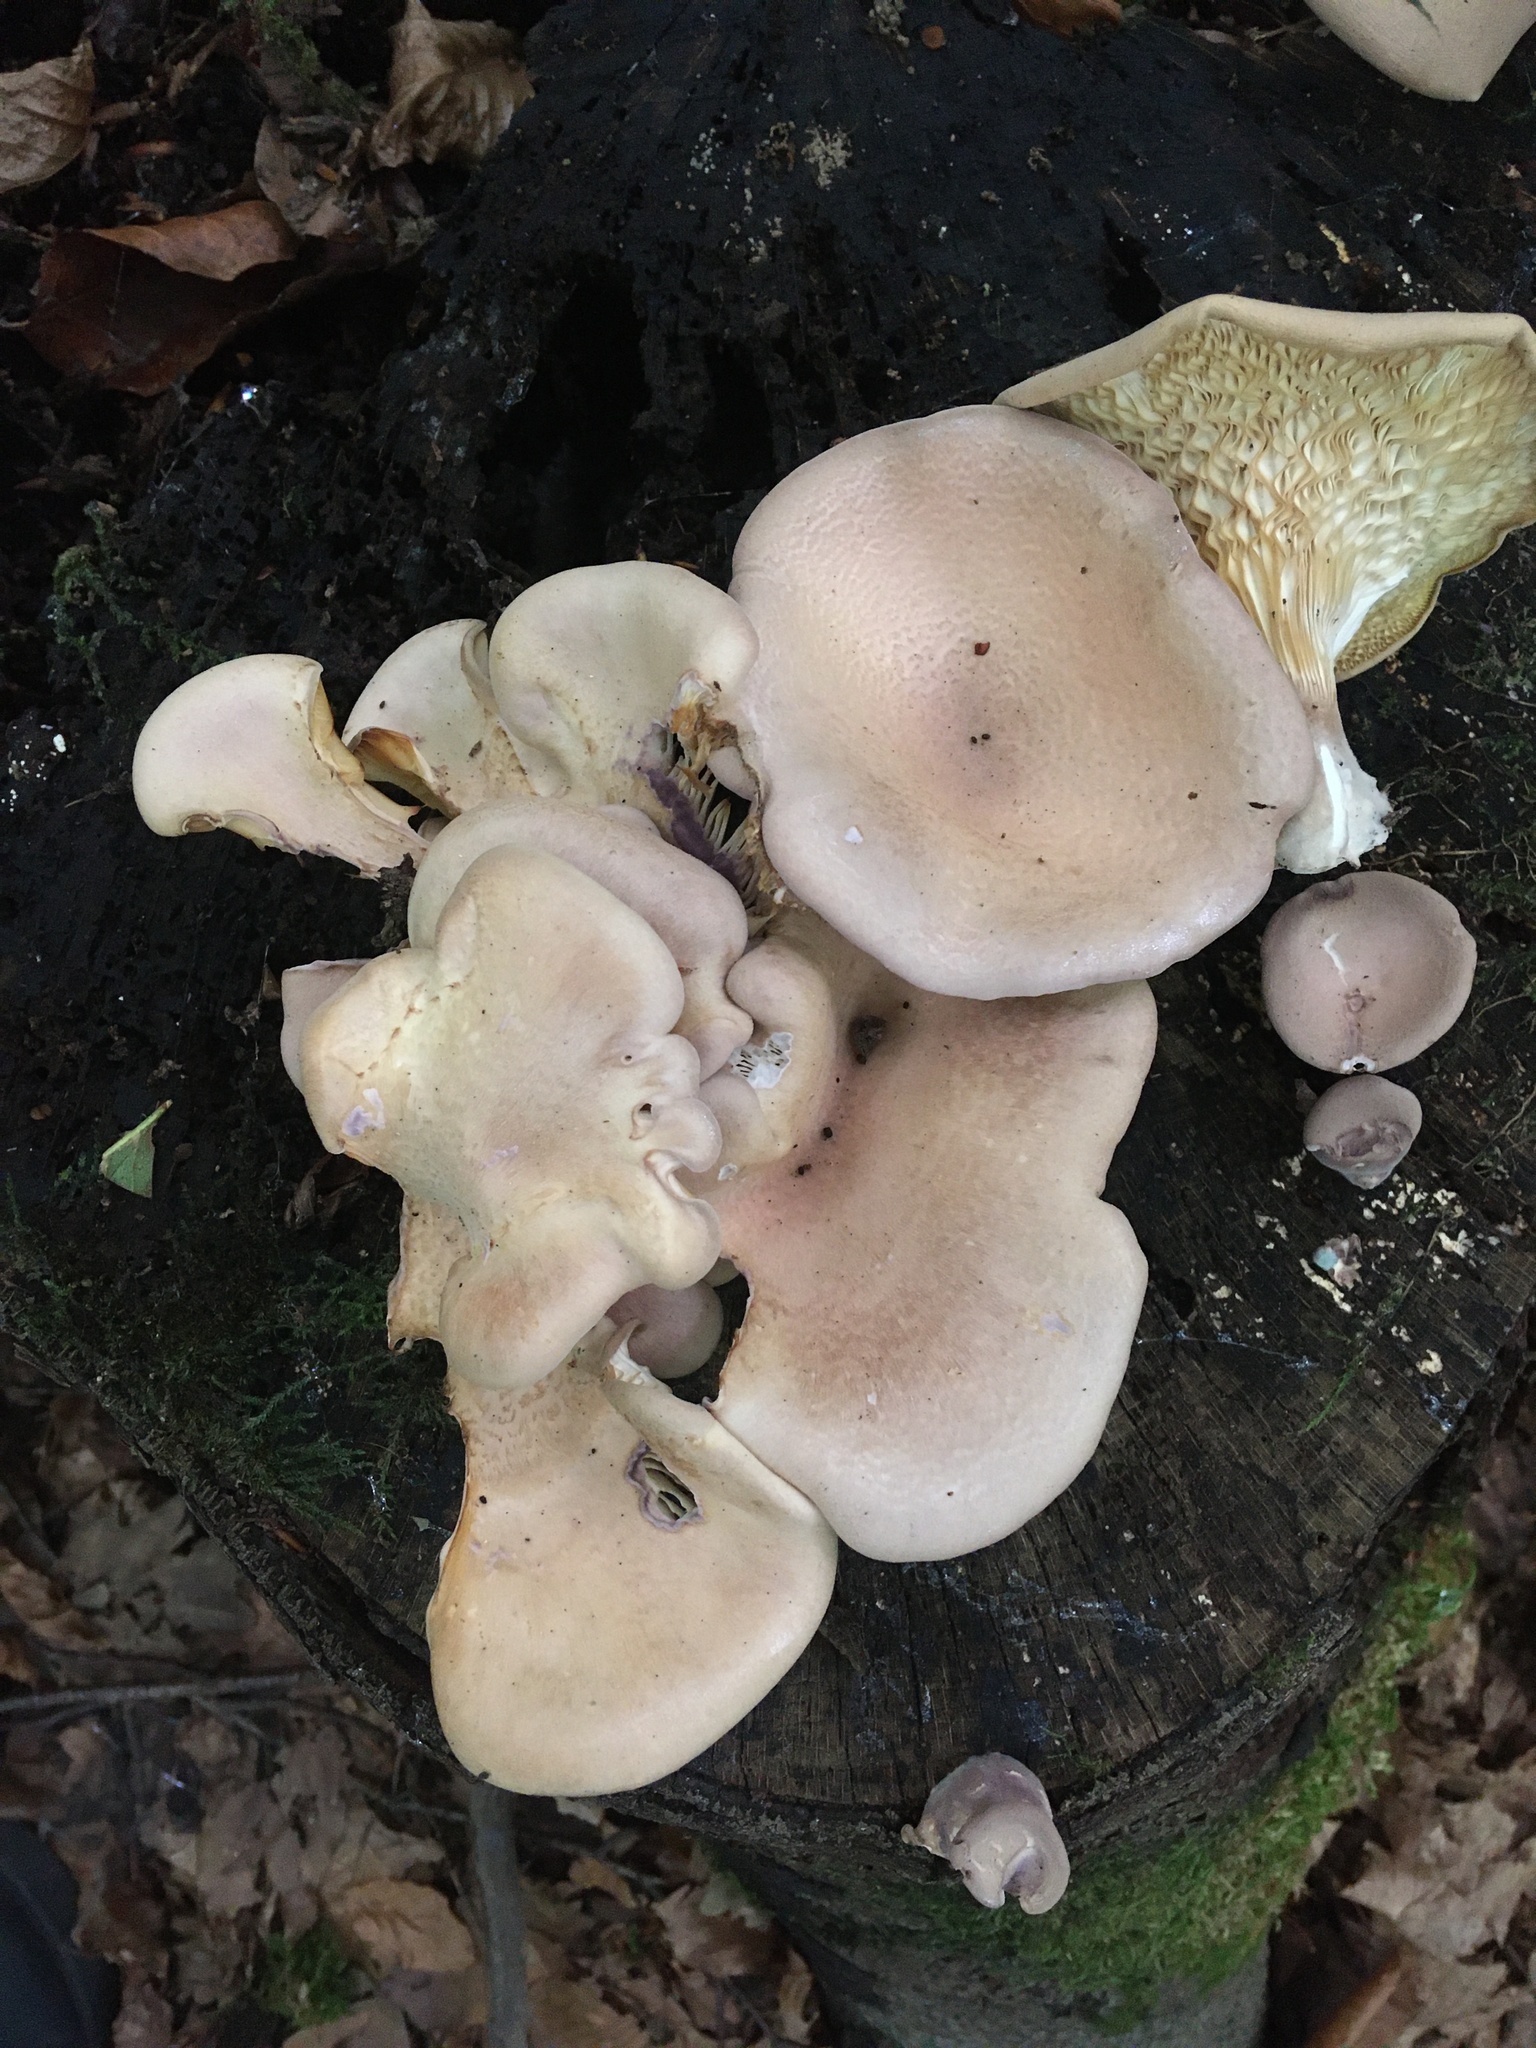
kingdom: Fungi
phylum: Basidiomycota
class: Agaricomycetes
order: Polyporales
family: Panaceae
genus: Panus
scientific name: Panus conchatus
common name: Lilac oysterling
